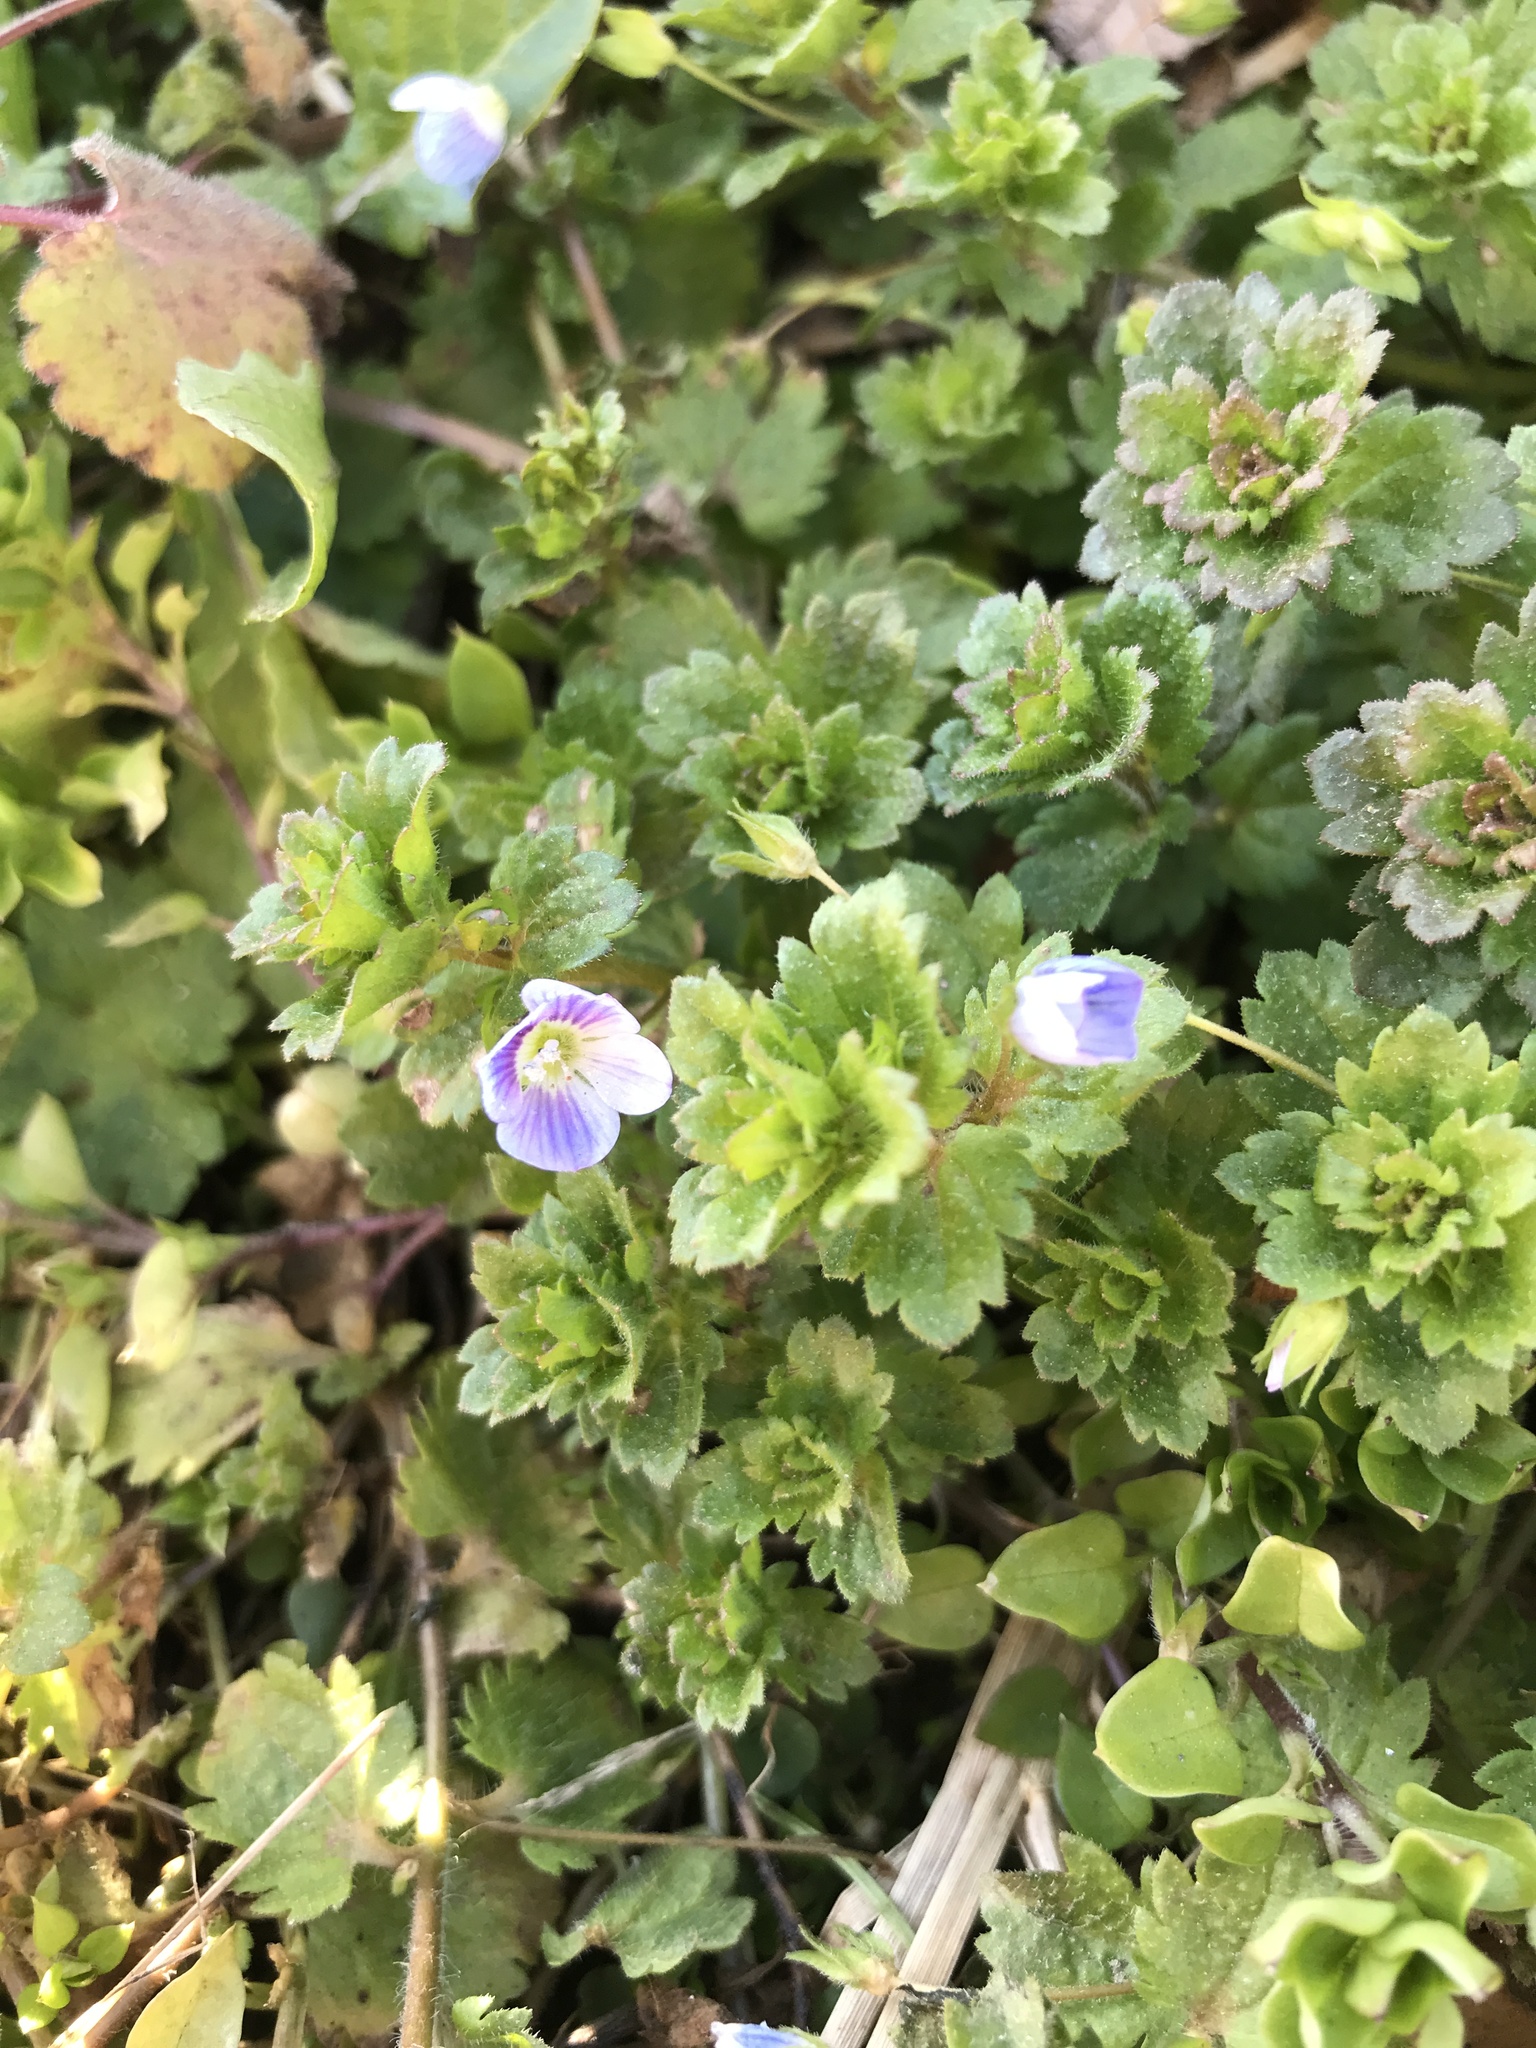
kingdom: Plantae
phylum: Tracheophyta
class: Magnoliopsida
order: Lamiales
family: Plantaginaceae
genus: Veronica
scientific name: Veronica persica
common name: Common field-speedwell
